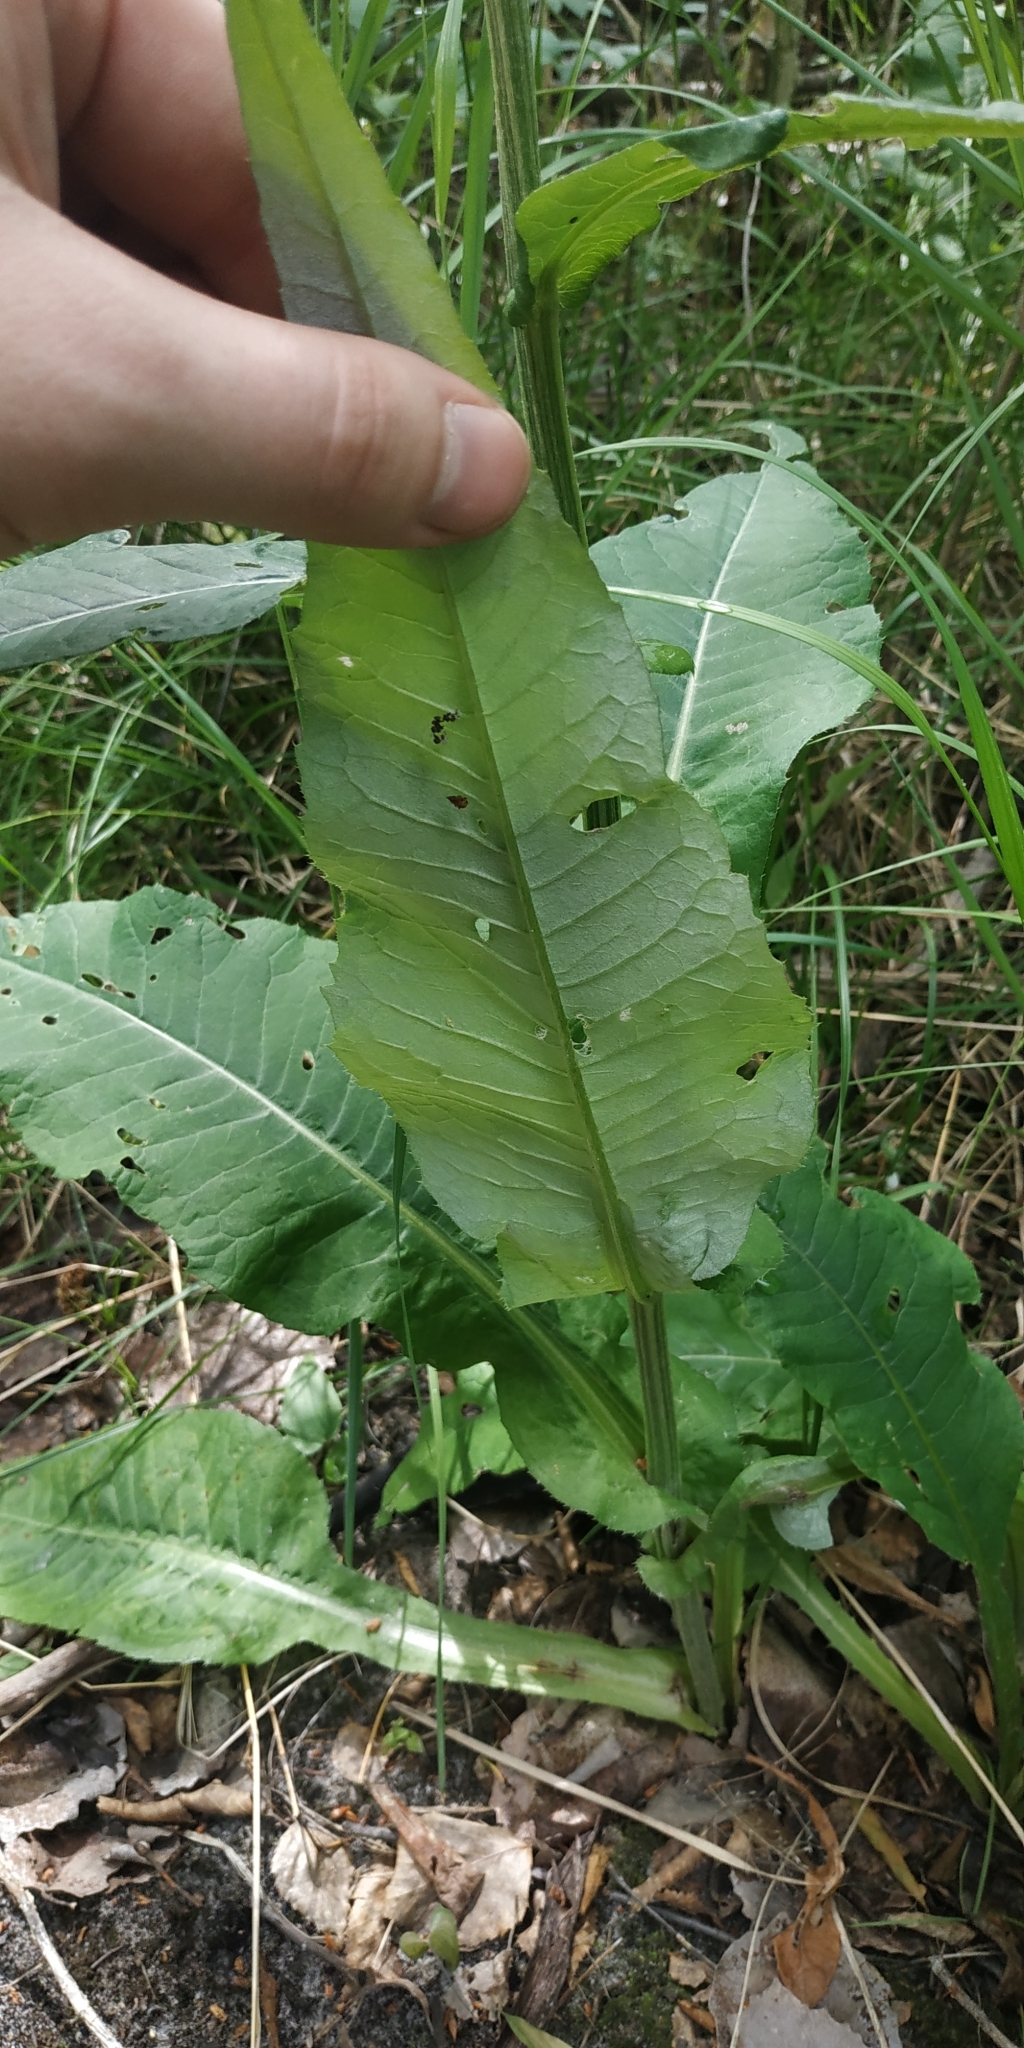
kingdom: Plantae
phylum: Tracheophyta
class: Magnoliopsida
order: Asterales
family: Asteraceae
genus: Cirsium
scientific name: Cirsium heterophyllum
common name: Melancholy thistle
